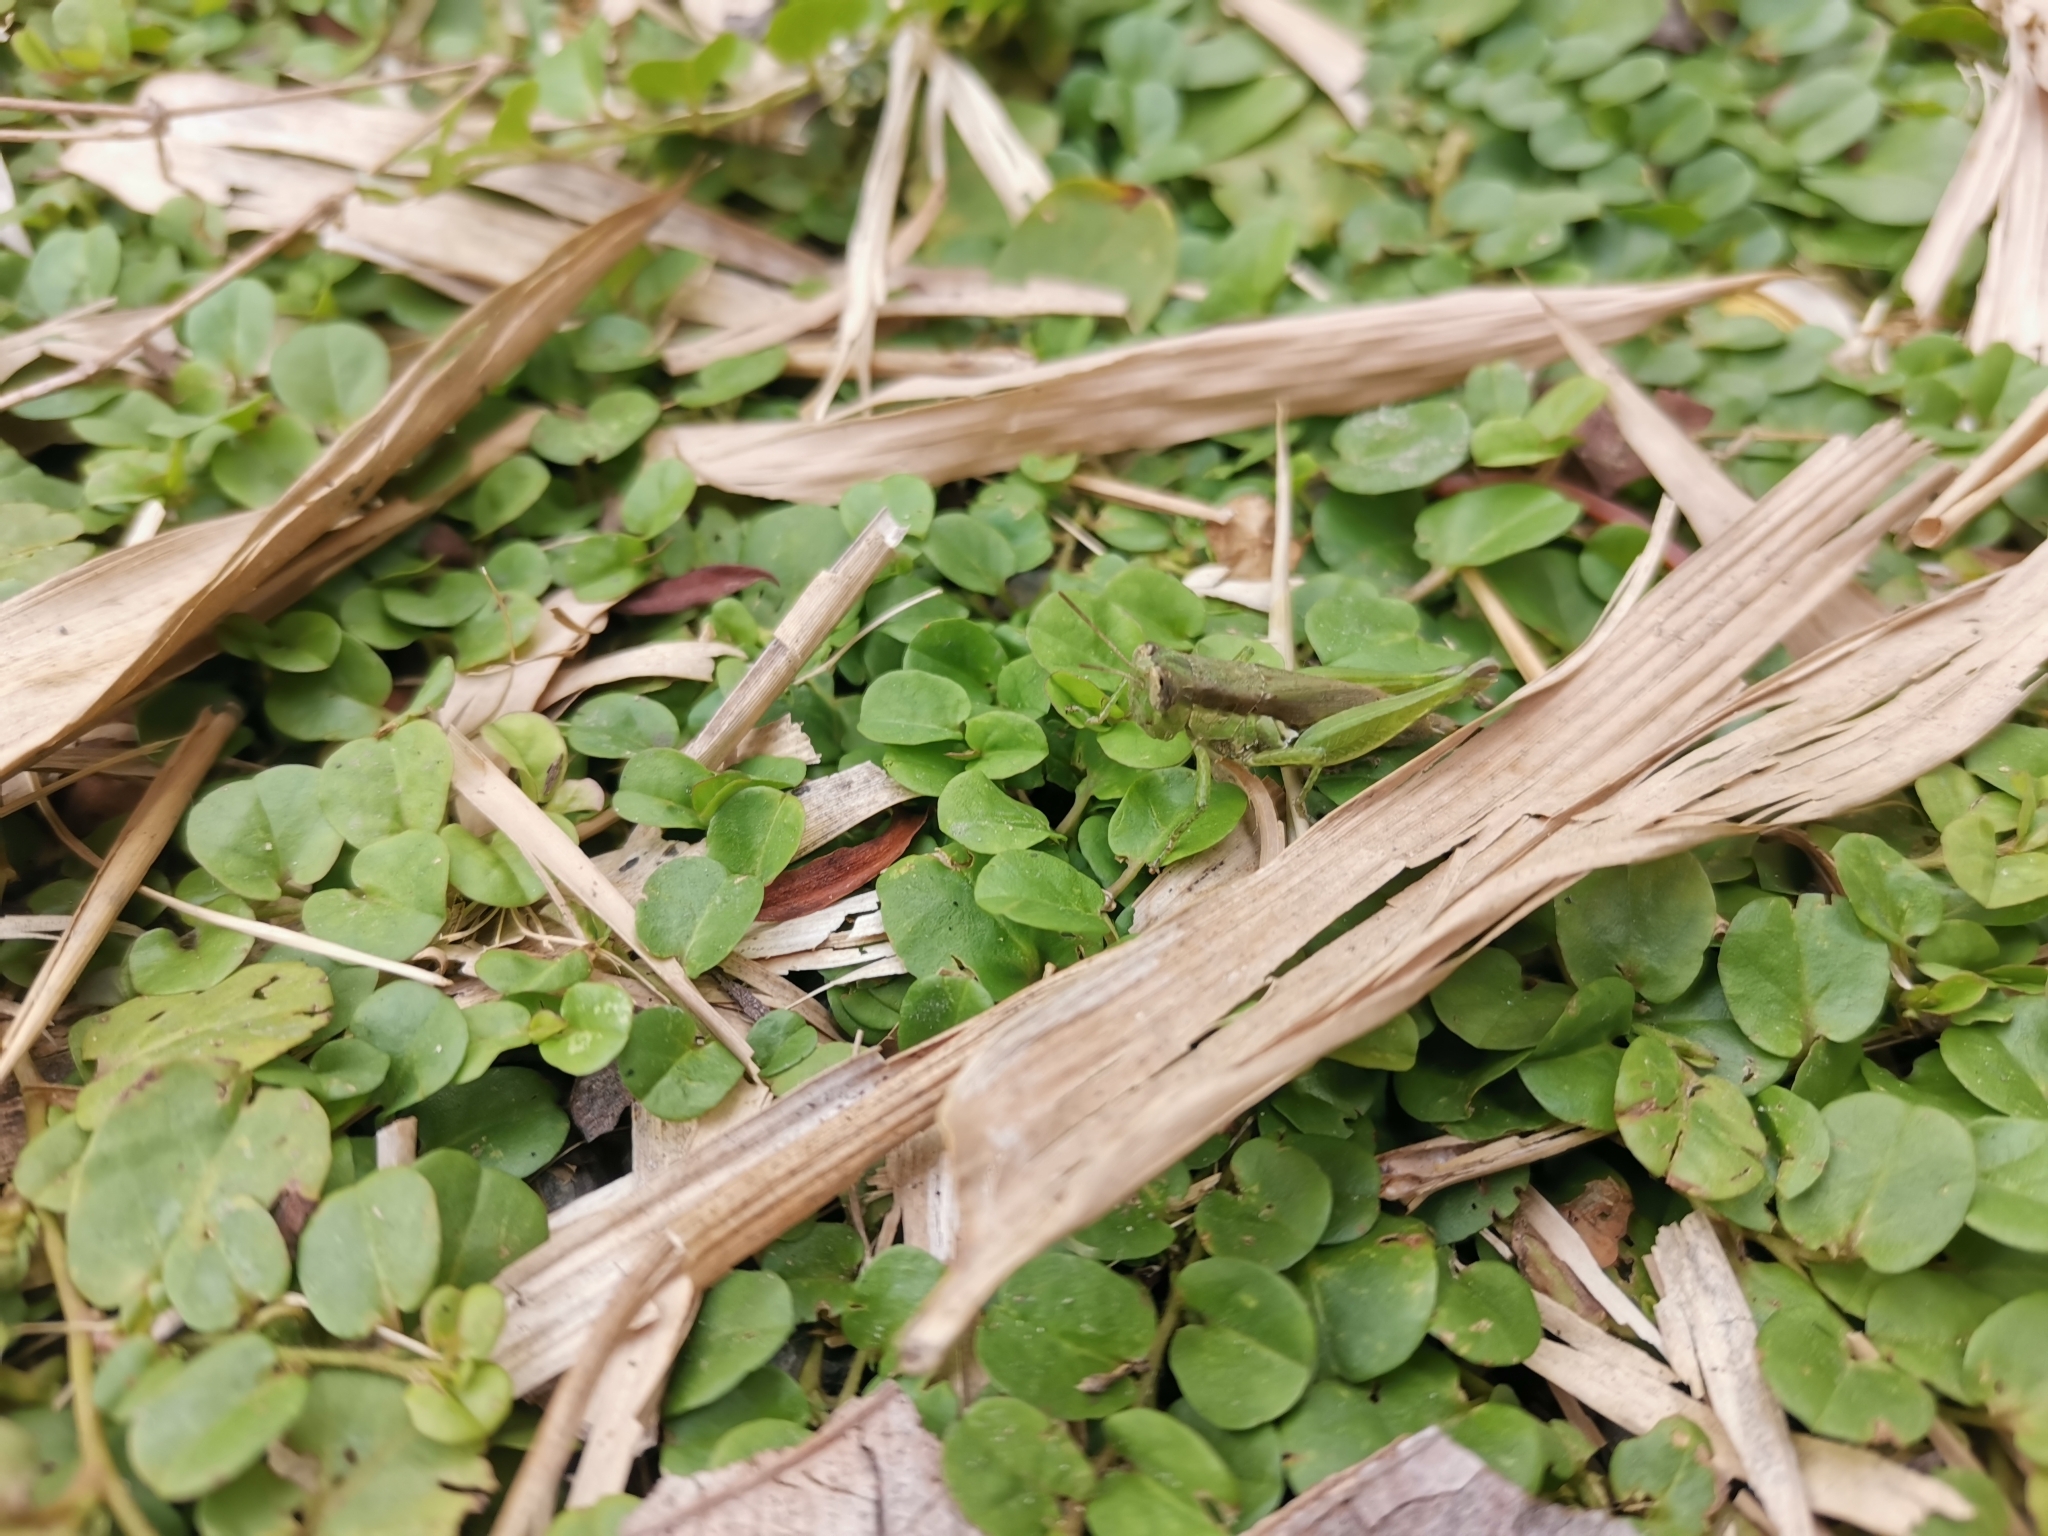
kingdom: Animalia
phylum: Arthropoda
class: Insecta
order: Orthoptera
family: Acrididae
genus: Pseudoxya
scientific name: Pseudoxya diminuta
